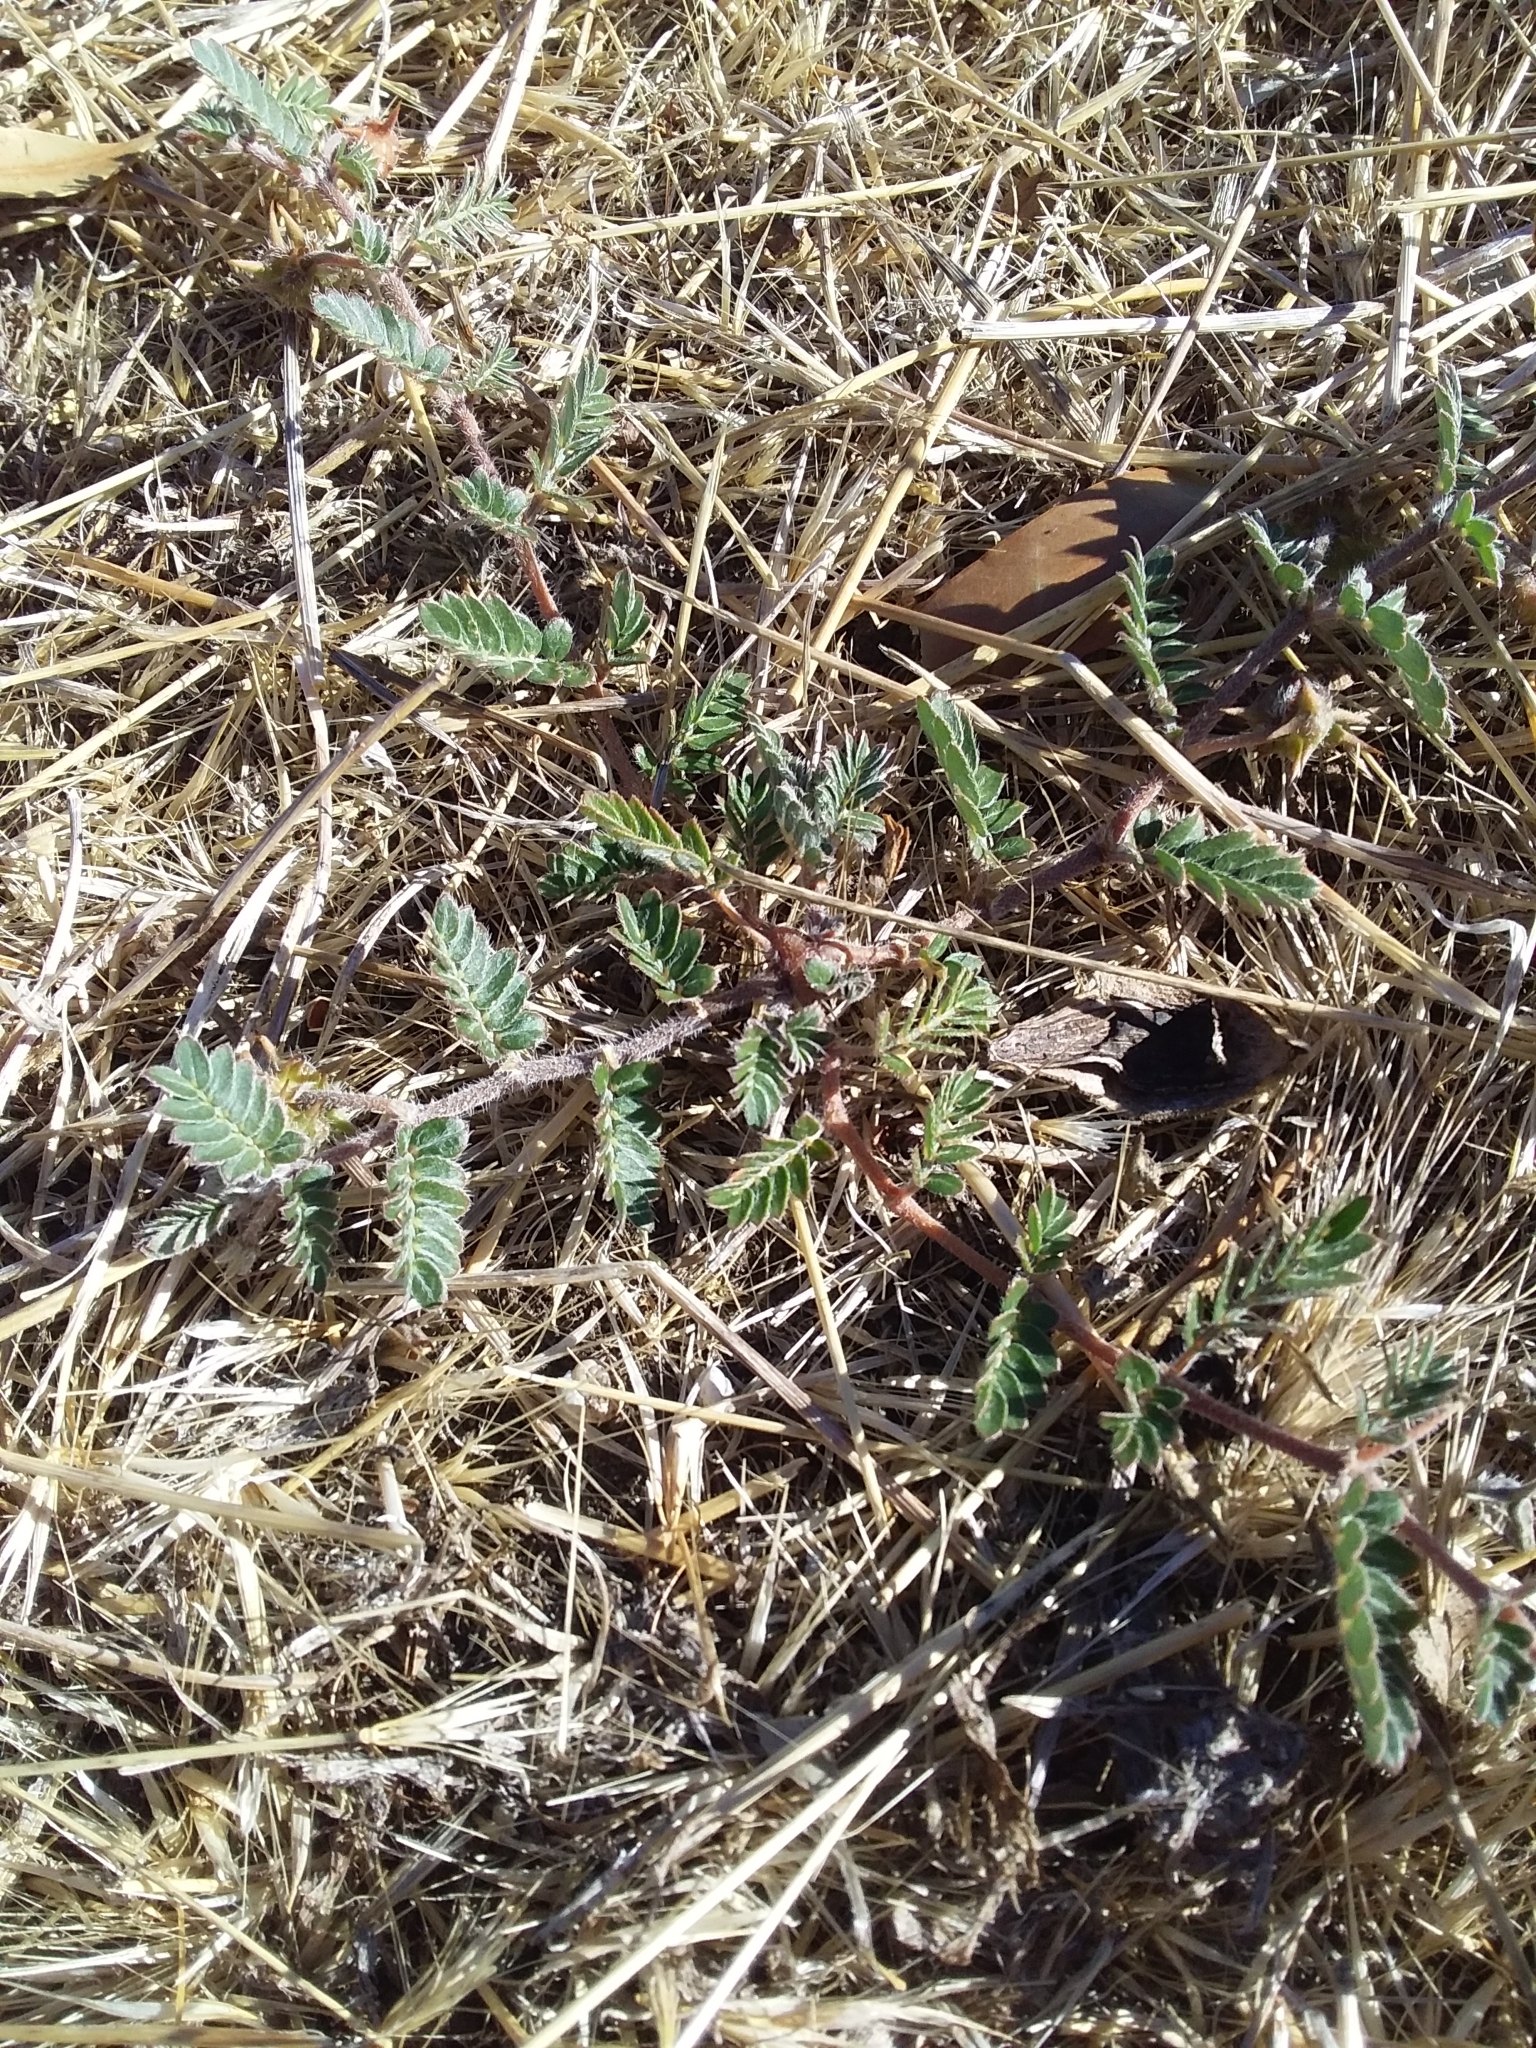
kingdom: Plantae
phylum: Tracheophyta
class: Magnoliopsida
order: Zygophyllales
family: Zygophyllaceae
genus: Tribulus
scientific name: Tribulus terrestris
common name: Puncturevine
